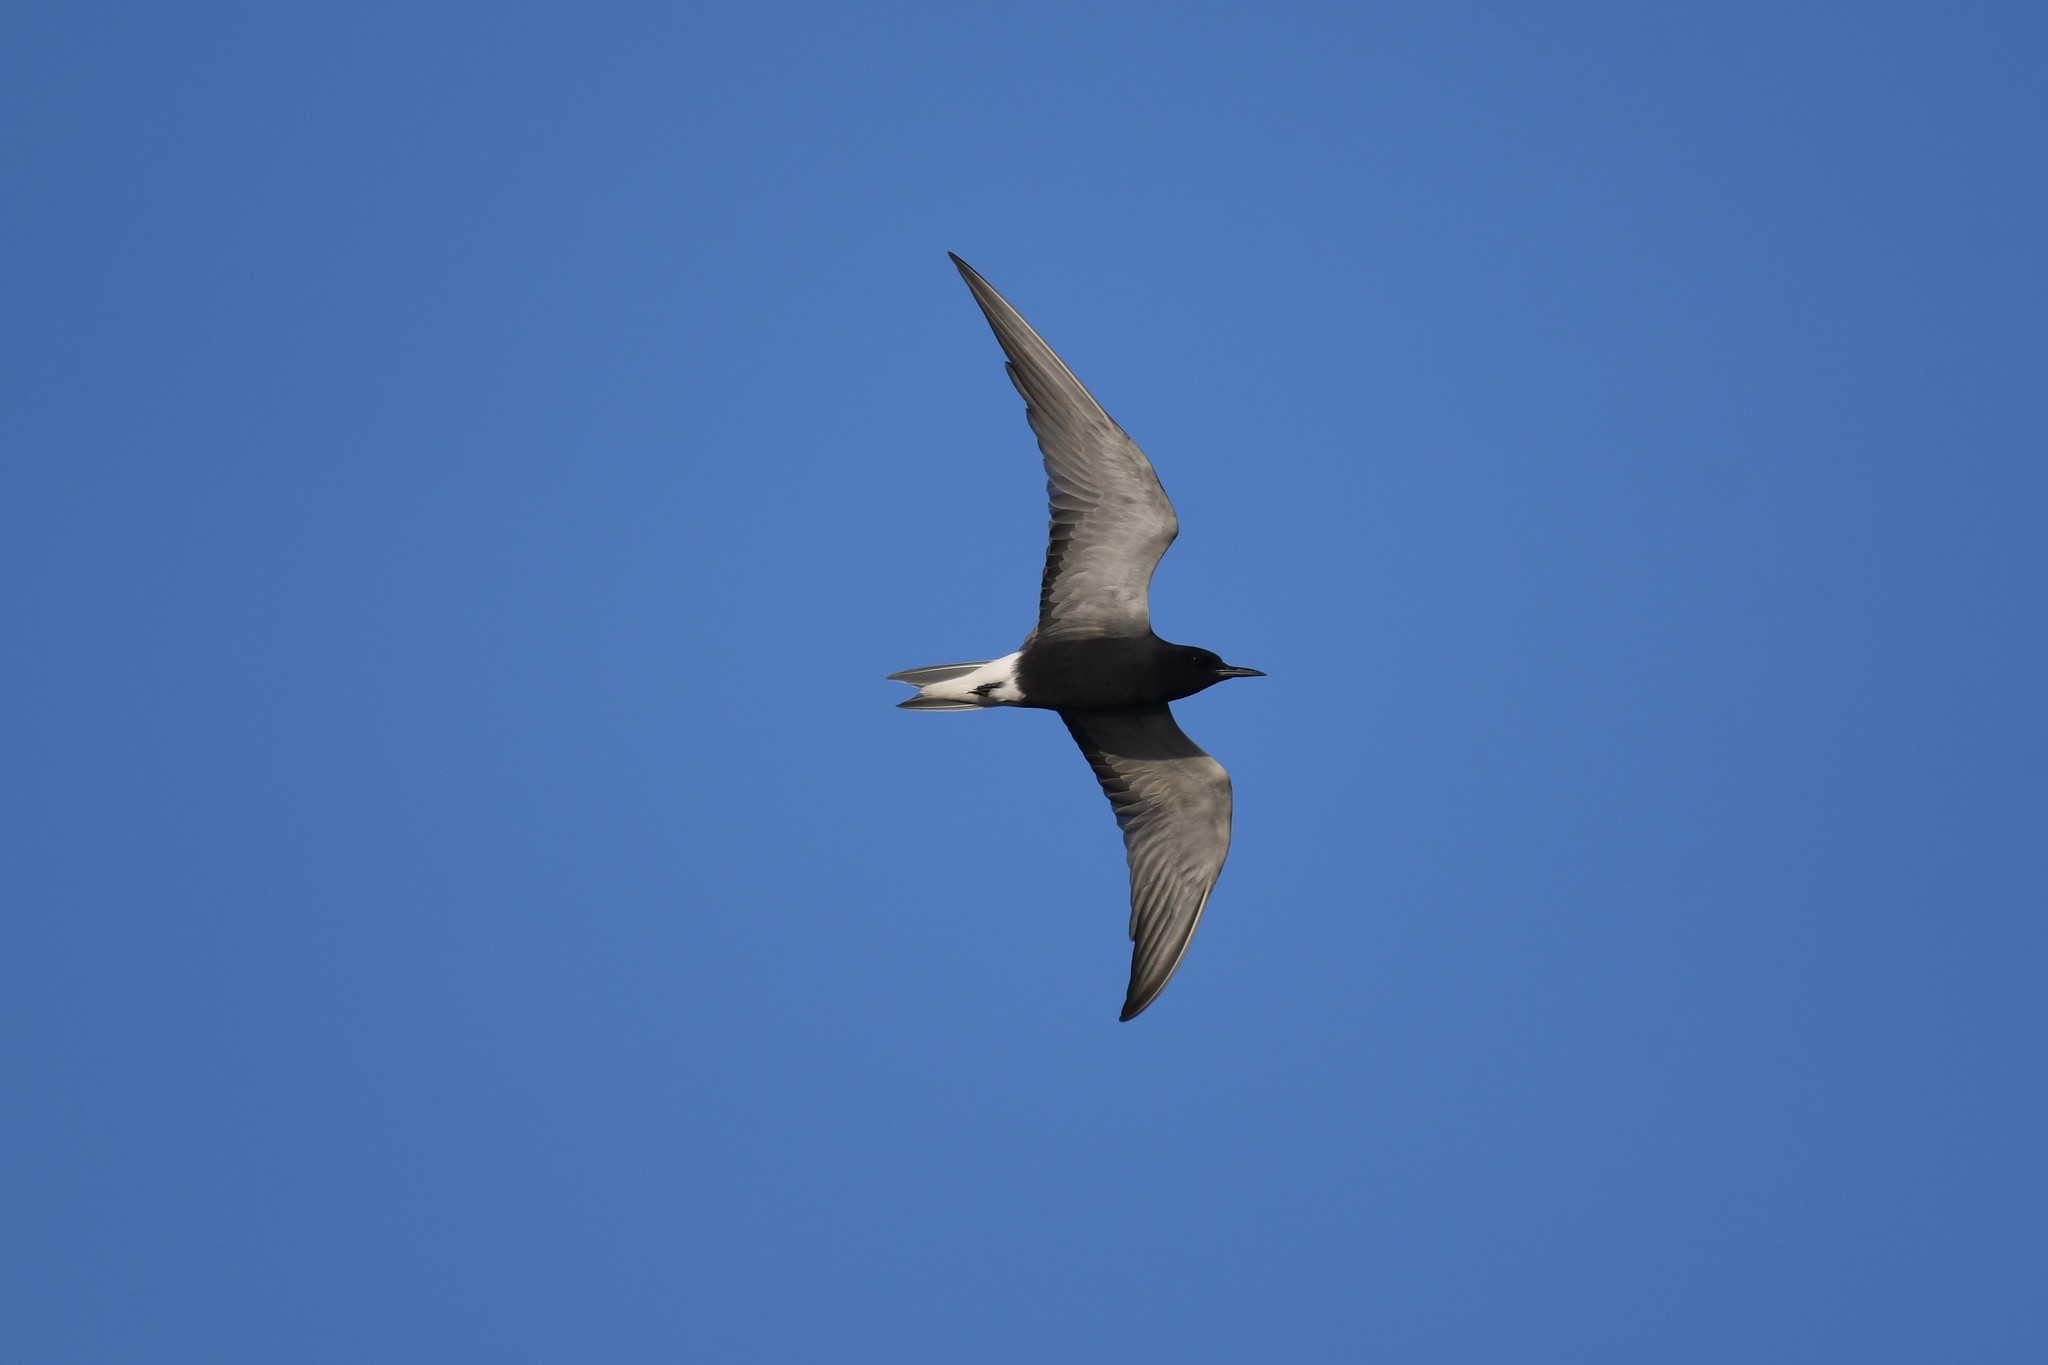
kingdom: Animalia
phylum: Chordata
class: Aves
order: Charadriiformes
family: Laridae
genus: Chlidonias
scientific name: Chlidonias niger
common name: Black tern
